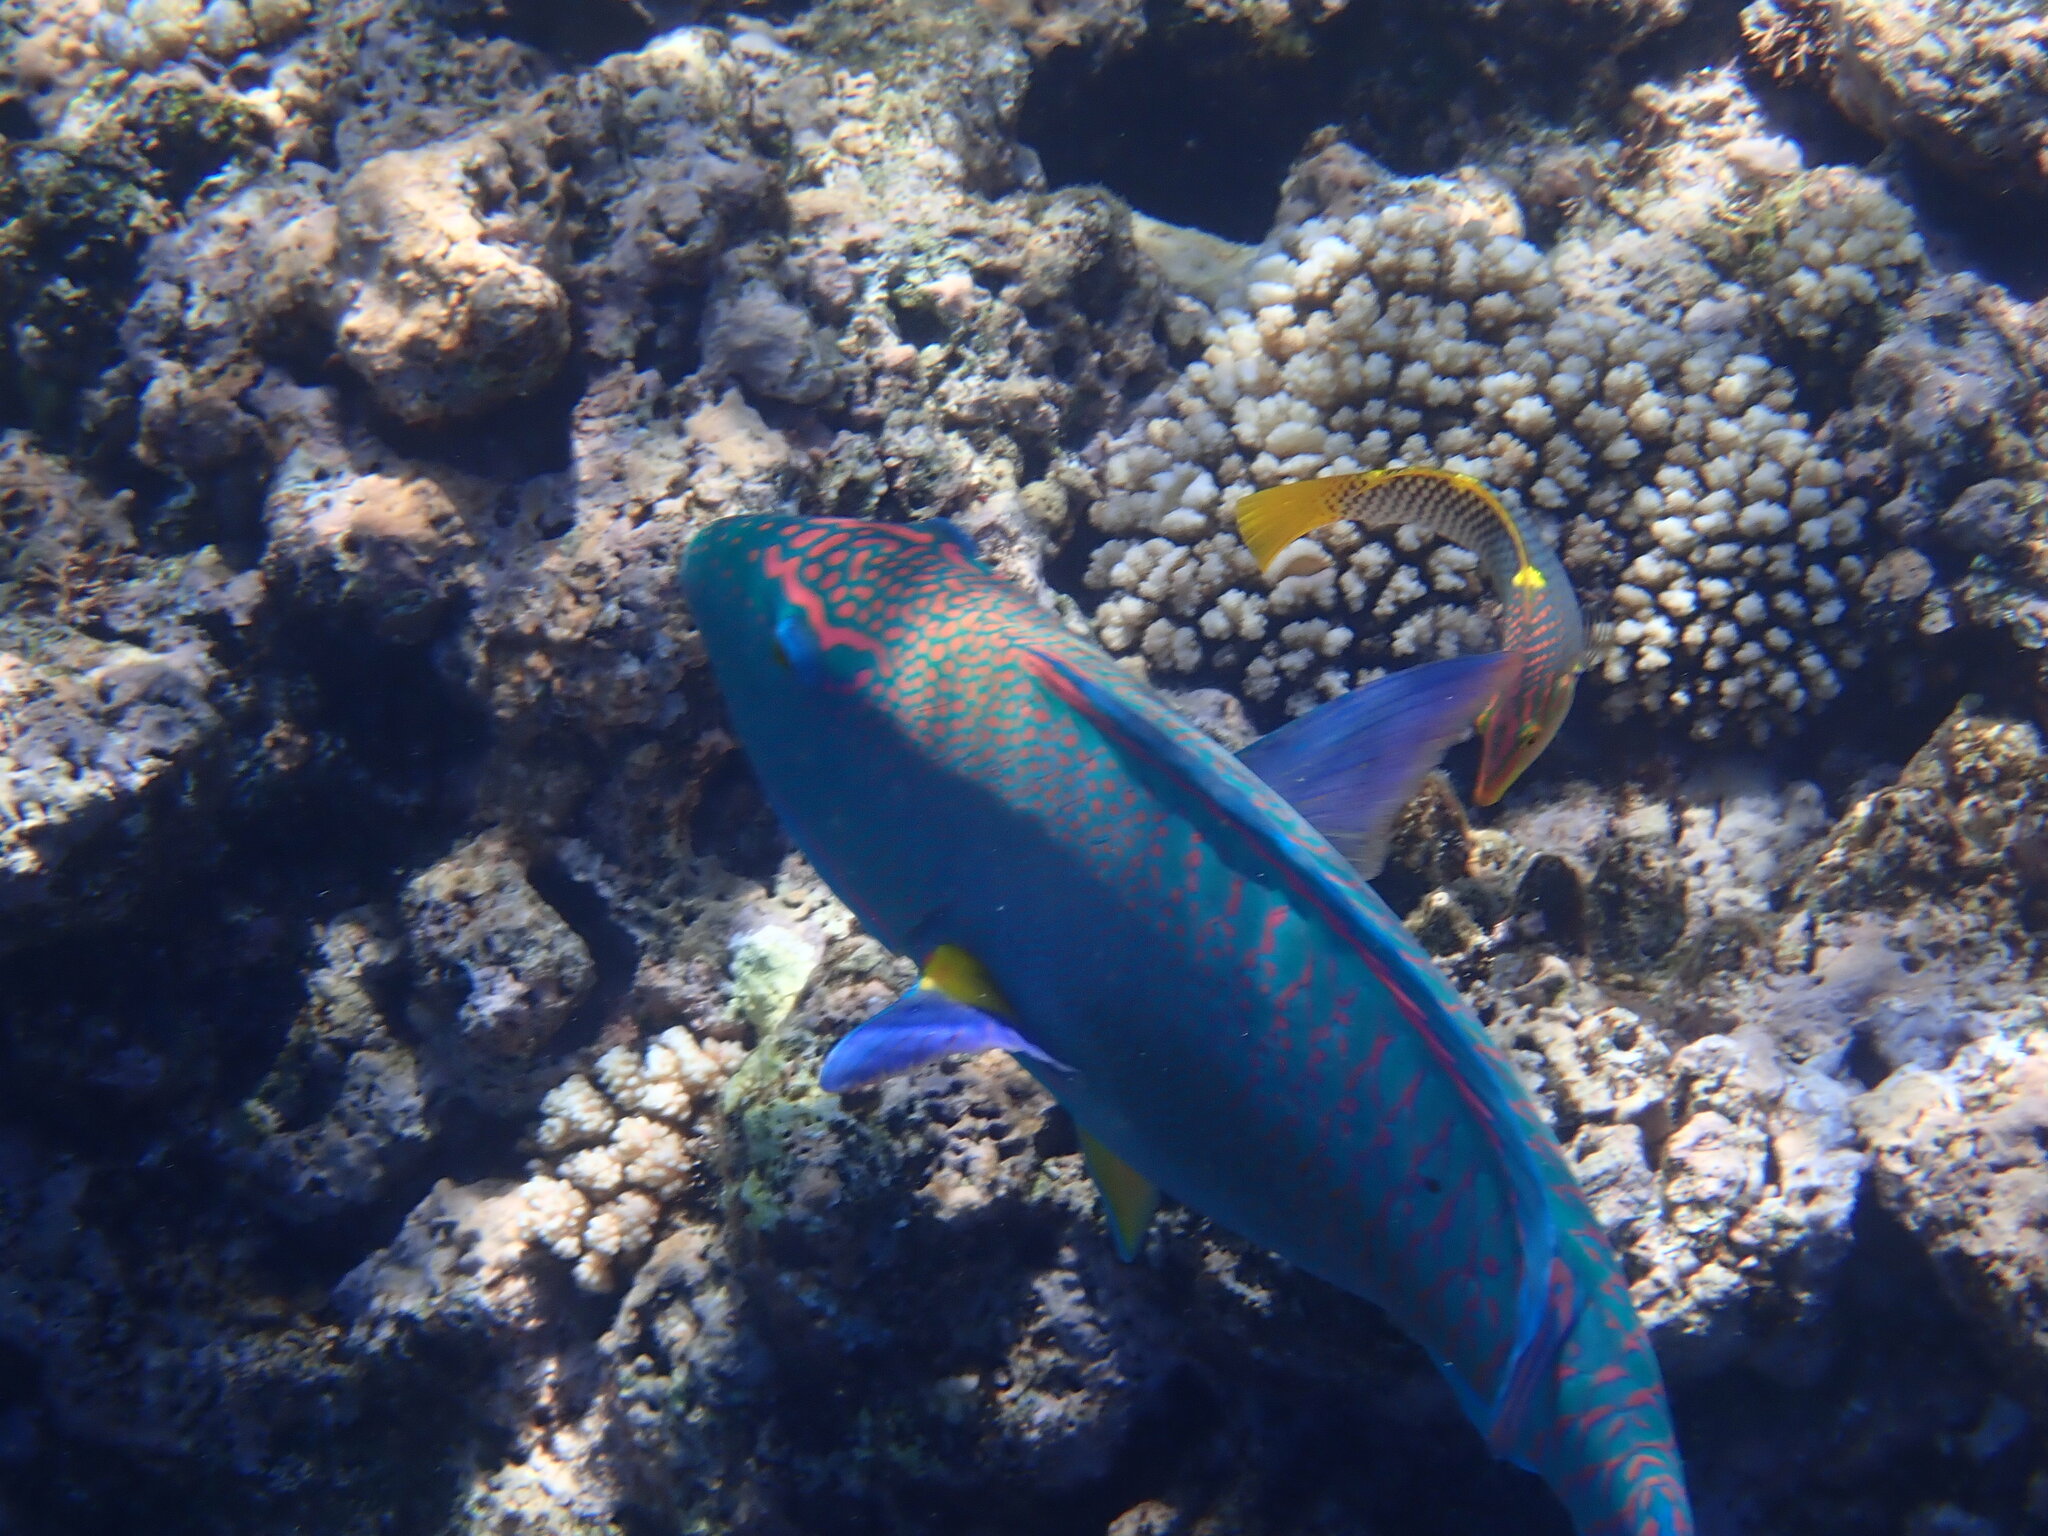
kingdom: Animalia
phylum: Chordata
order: Perciformes
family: Scaridae
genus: Cetoscarus
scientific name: Cetoscarus ocellatus
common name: Bicolor parrotfish
